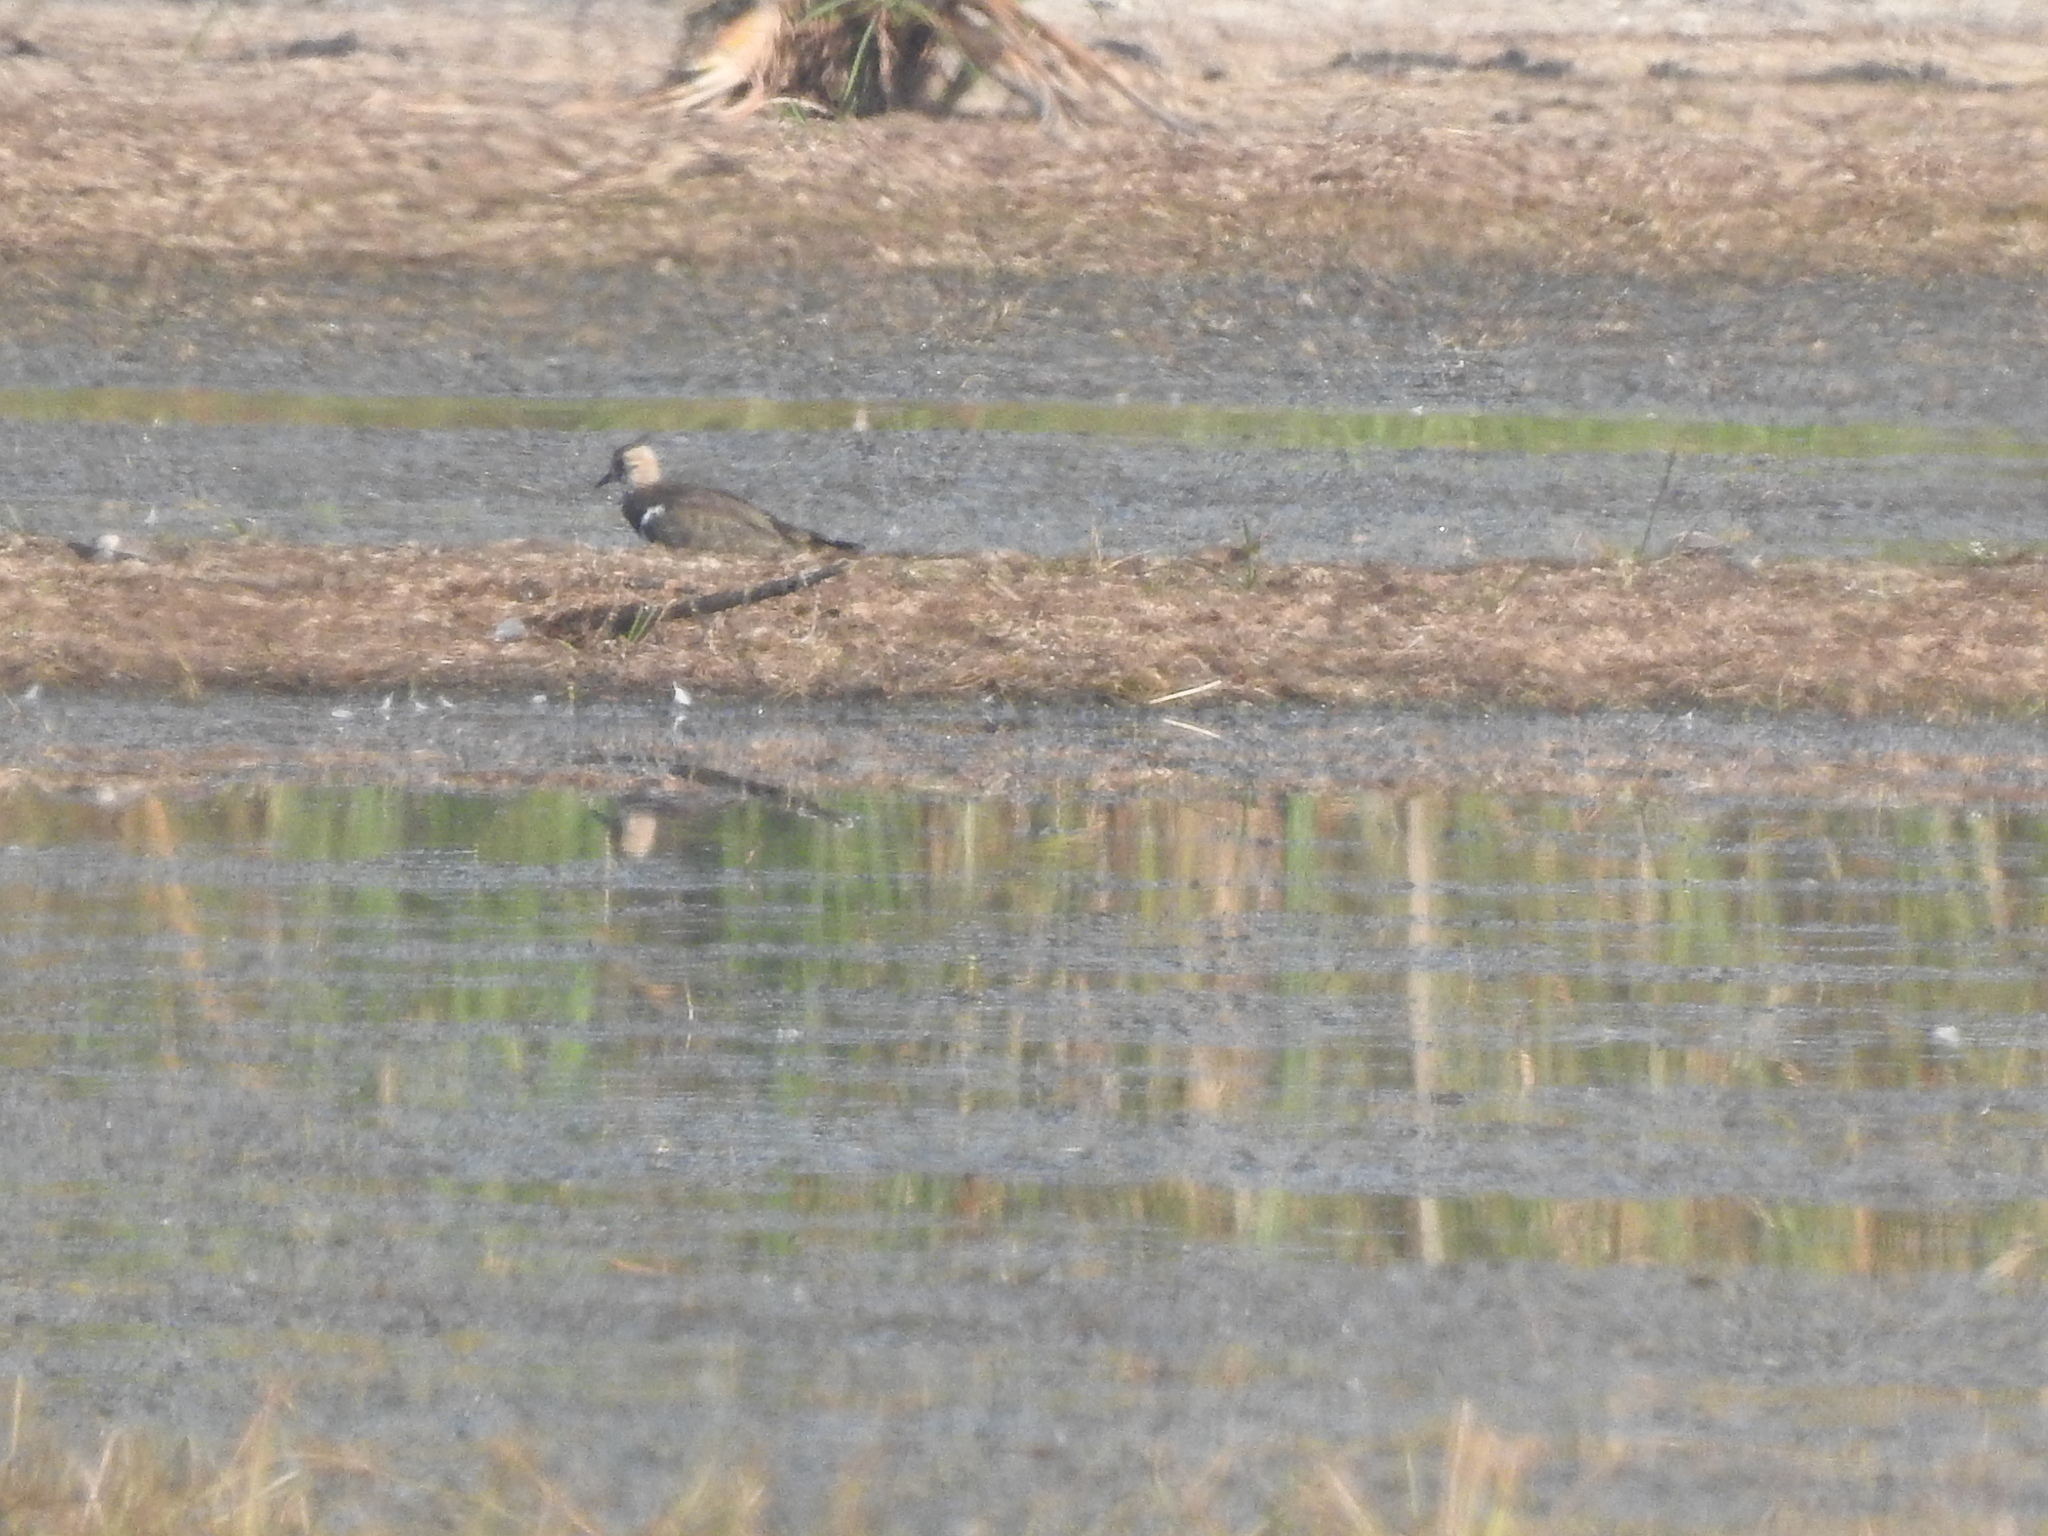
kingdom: Animalia
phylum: Chordata
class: Aves
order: Charadriiformes
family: Charadriidae
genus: Vanellus
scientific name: Vanellus vanellus
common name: Northern lapwing
